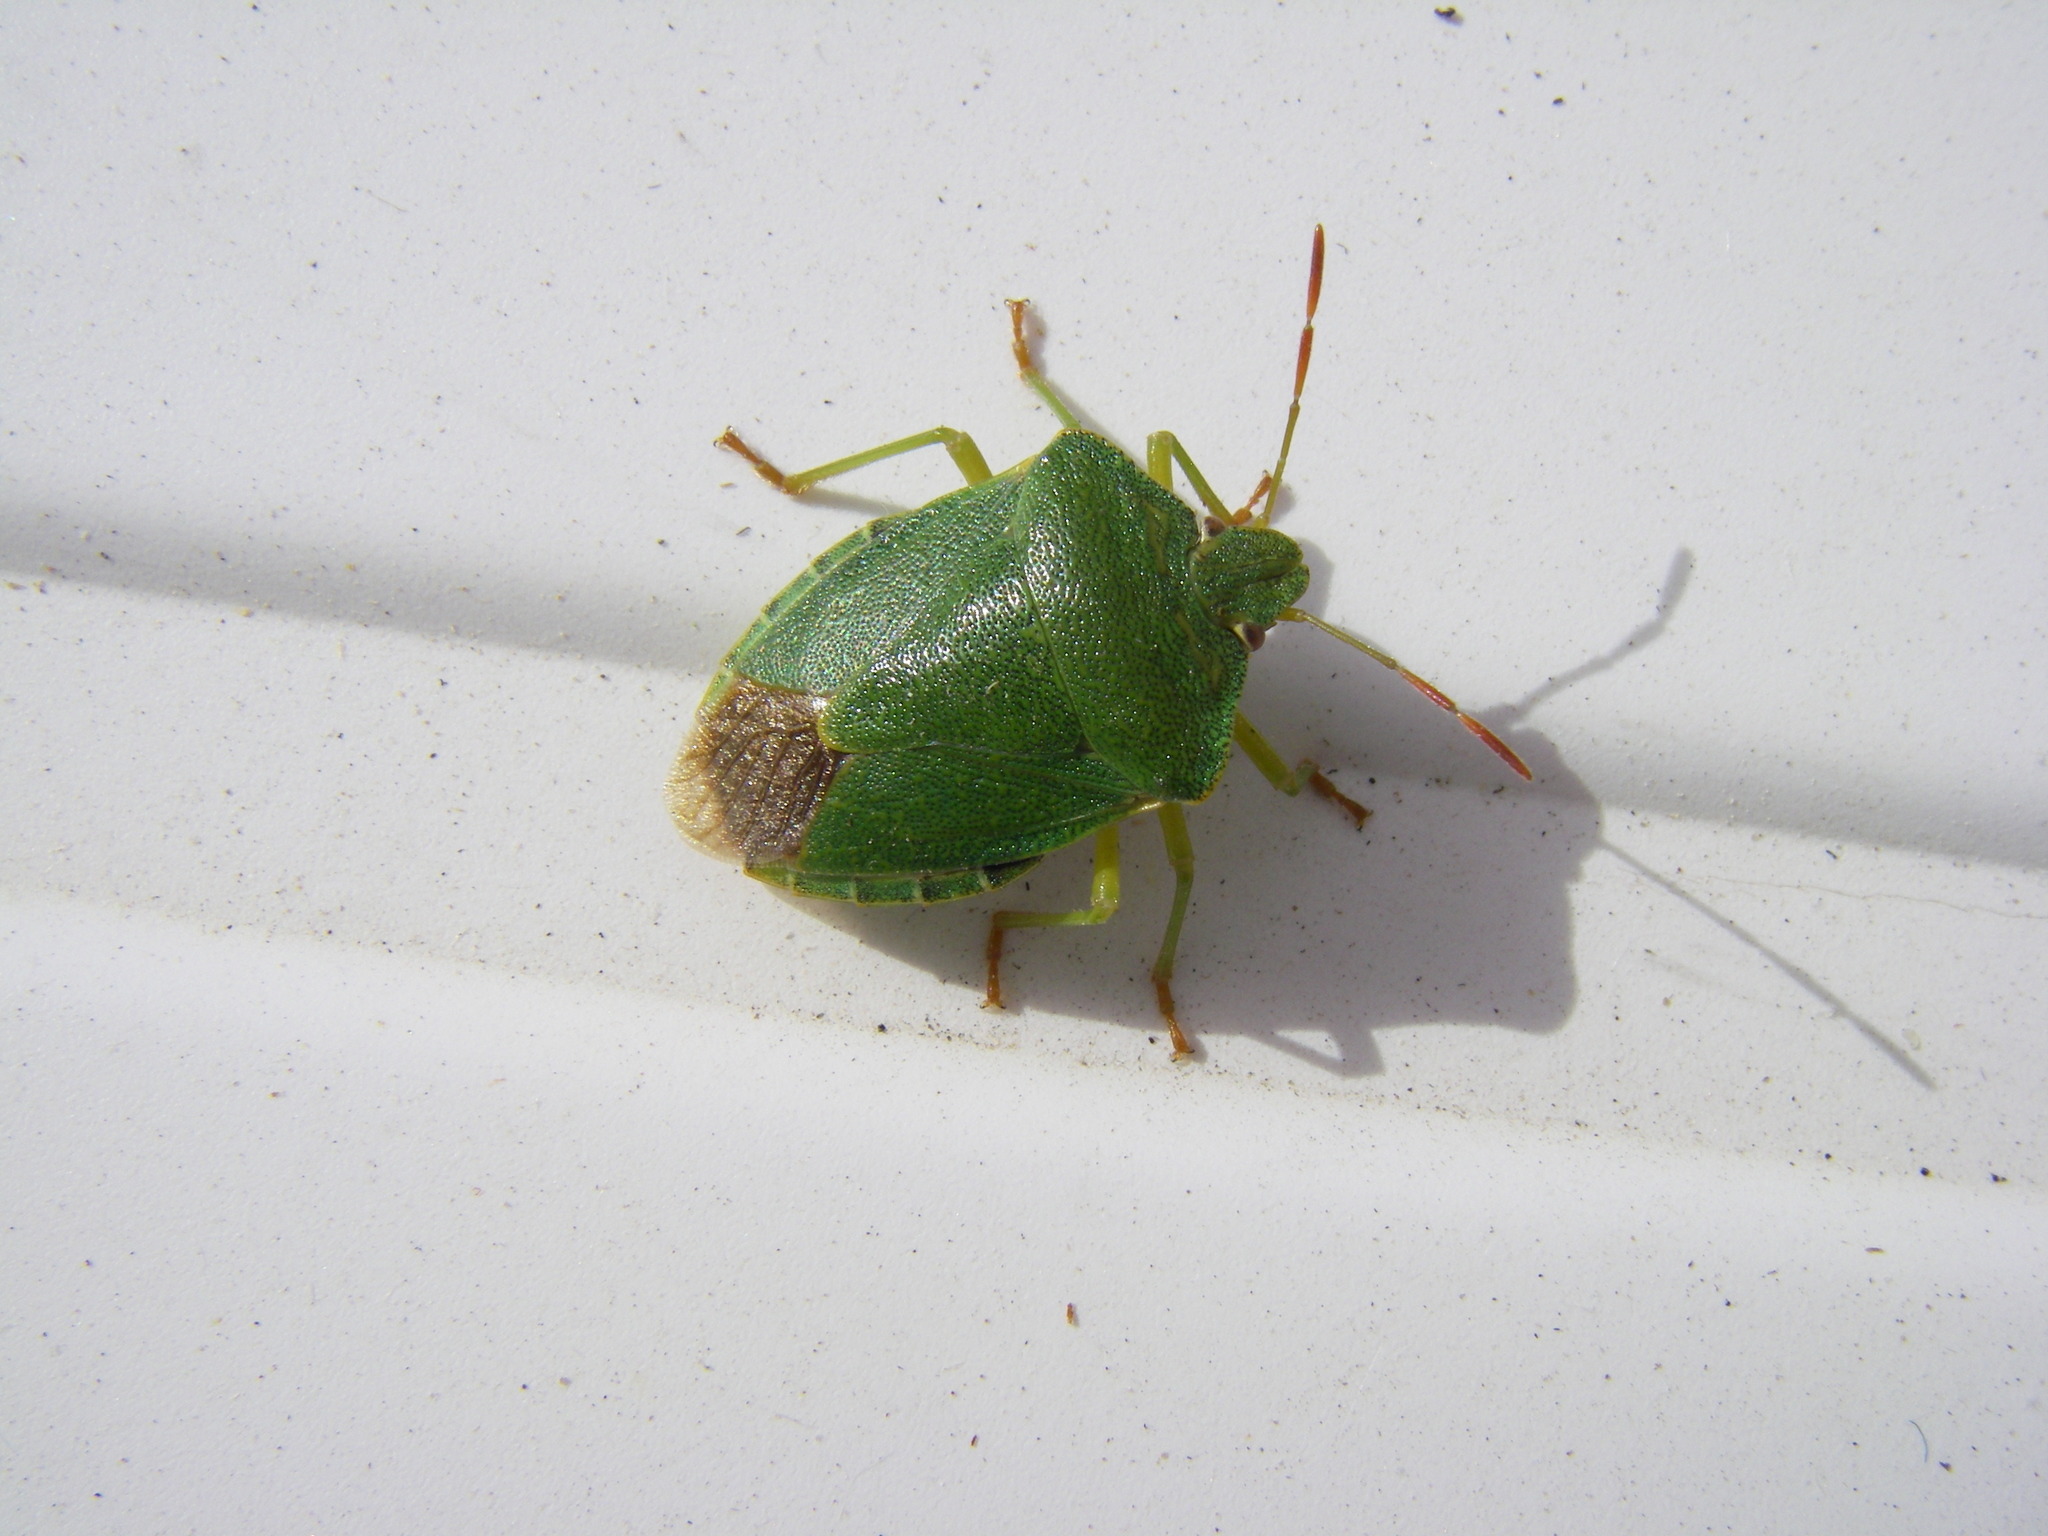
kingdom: Animalia
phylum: Arthropoda
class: Insecta
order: Hemiptera
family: Pentatomidae
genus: Palomena
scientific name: Palomena prasina
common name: Green shieldbug
